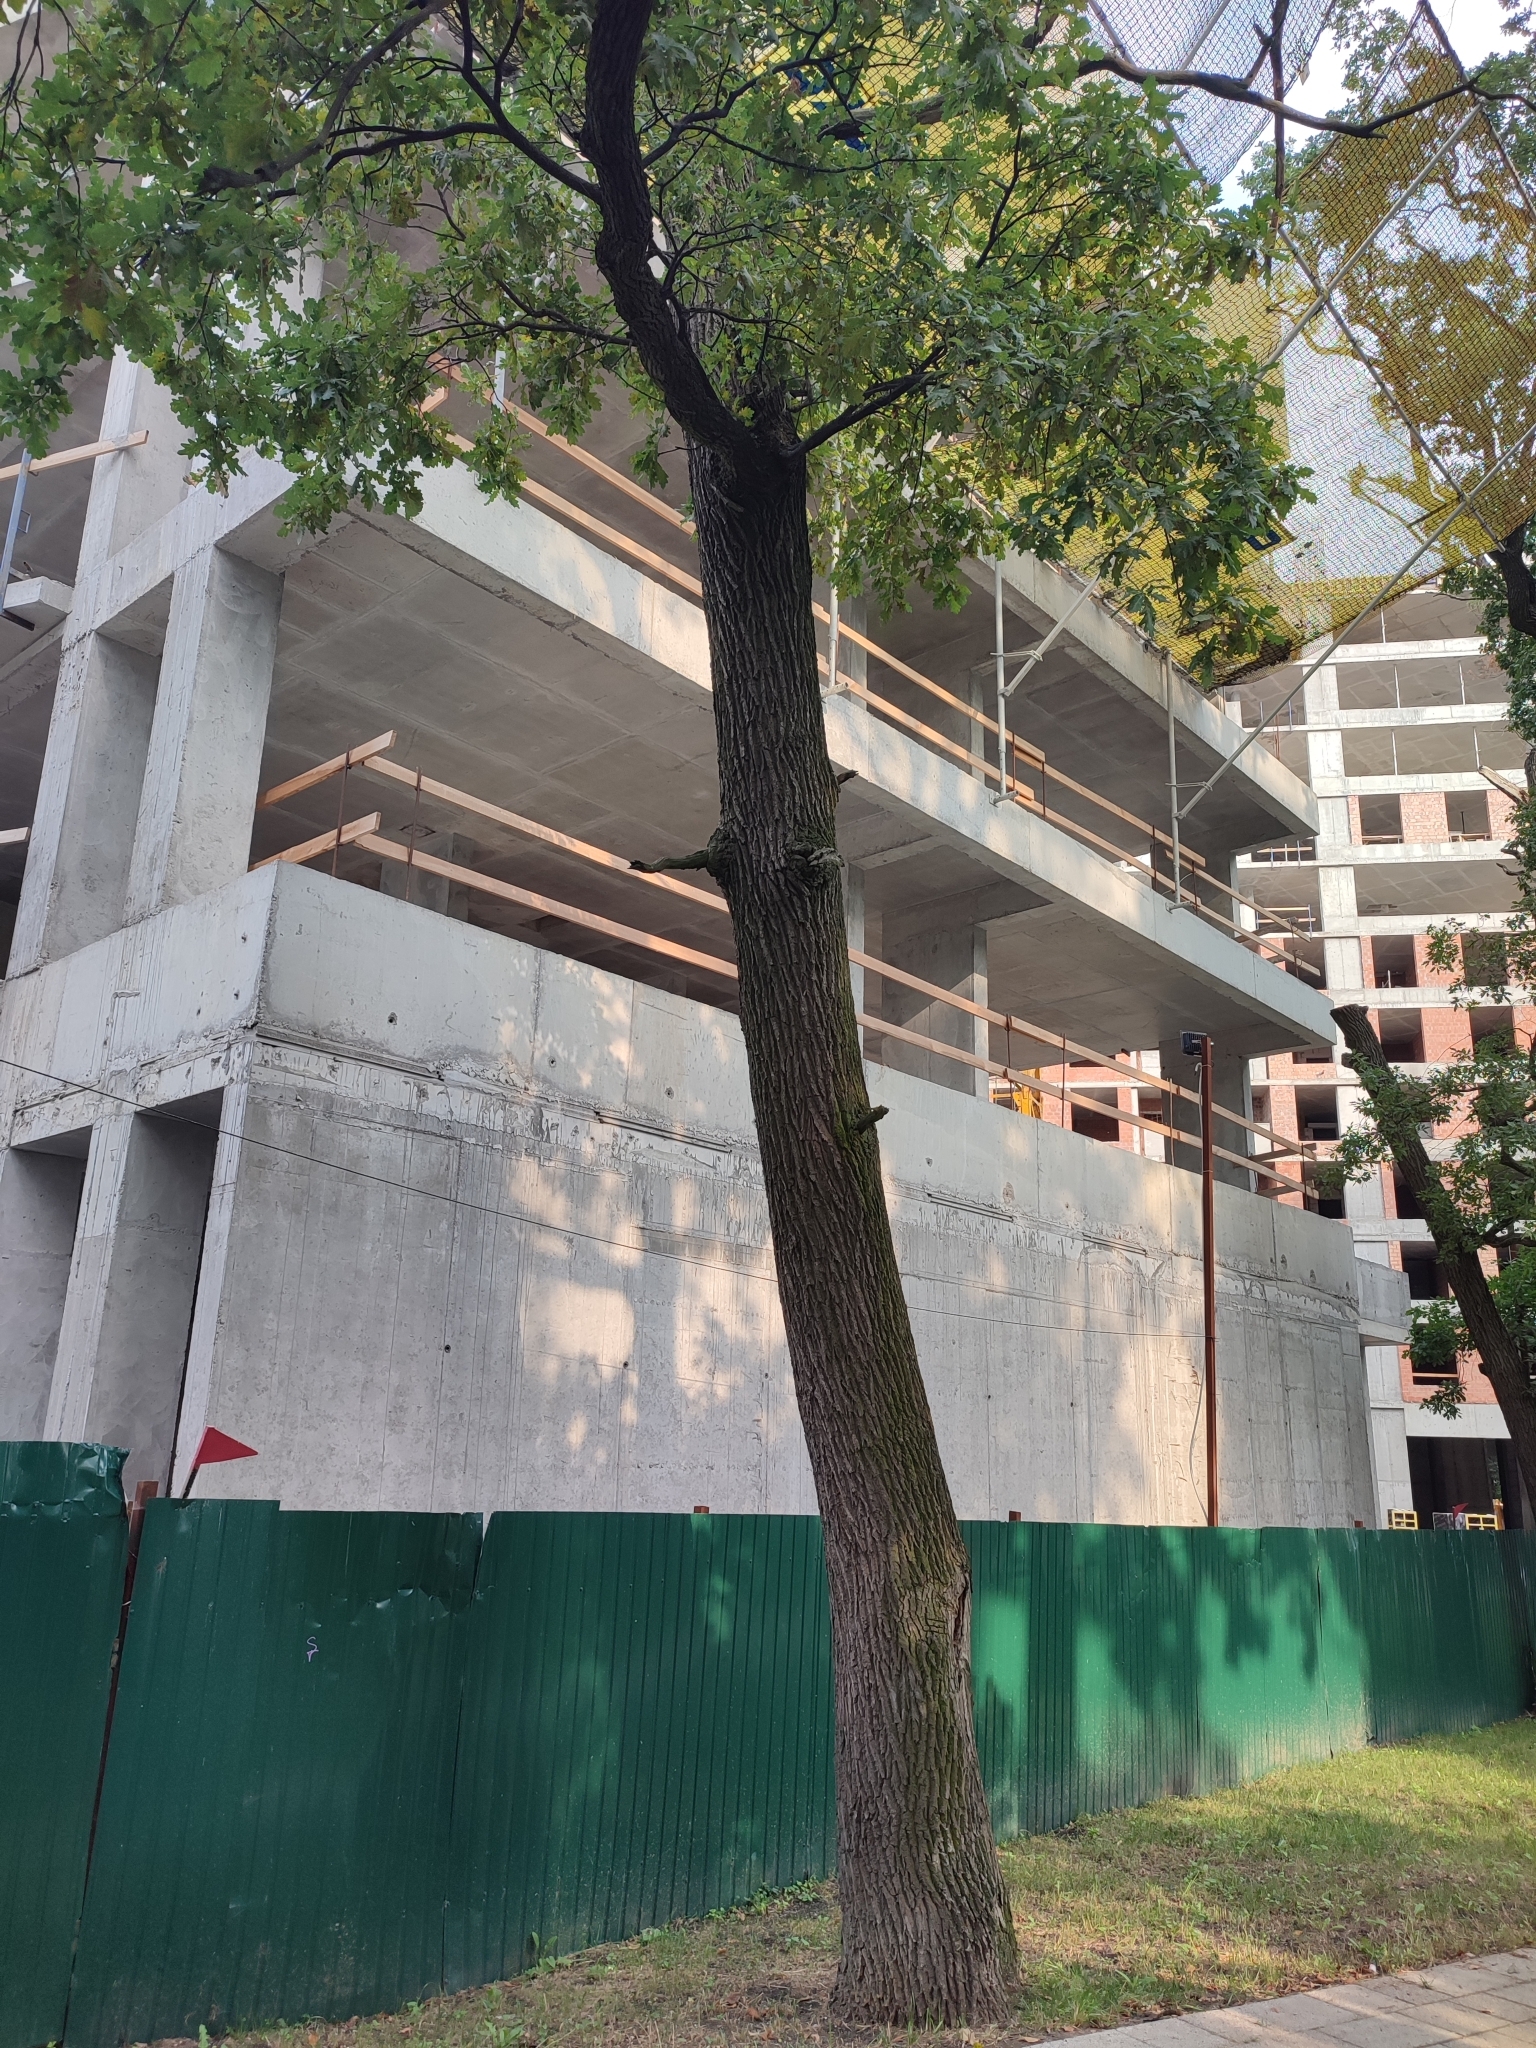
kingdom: Plantae
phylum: Tracheophyta
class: Magnoliopsida
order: Fagales
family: Fagaceae
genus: Quercus
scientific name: Quercus robur
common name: Pedunculate oak
